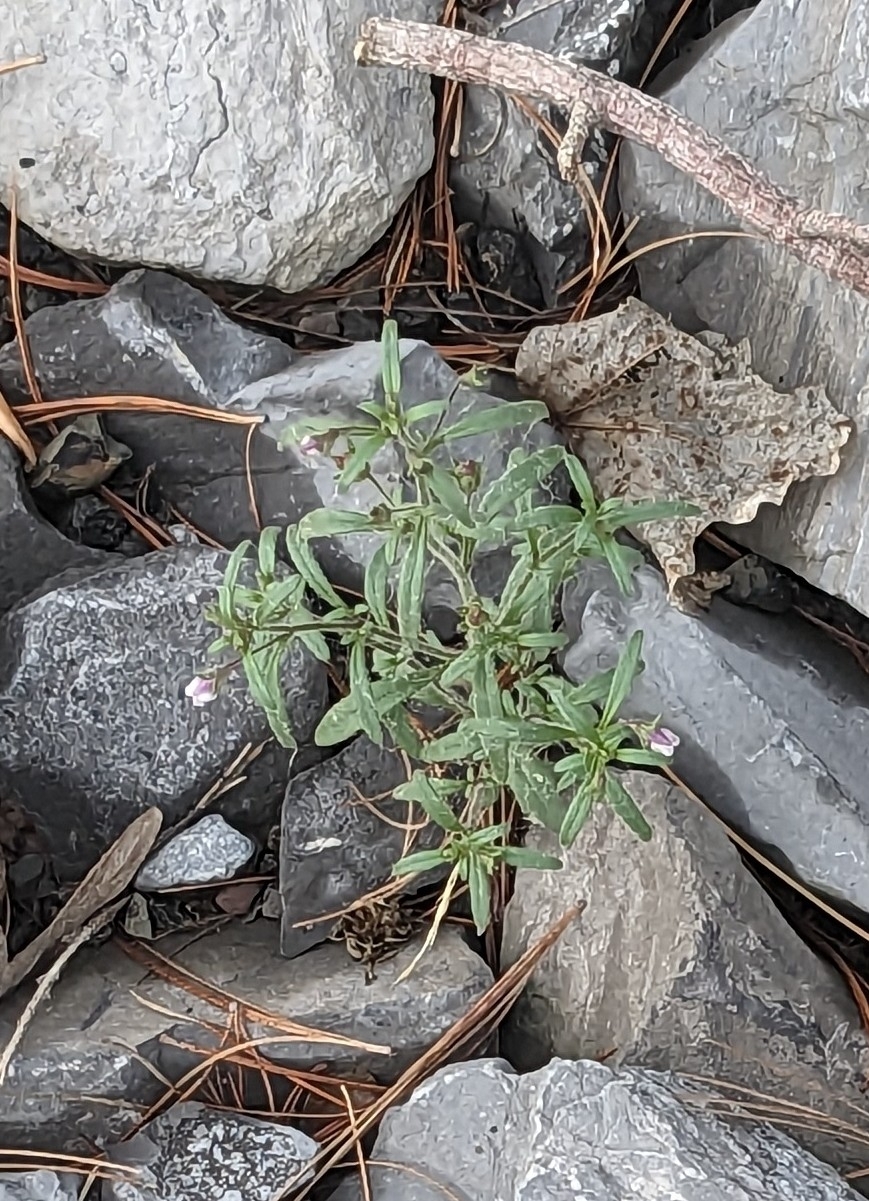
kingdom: Plantae
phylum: Tracheophyta
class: Magnoliopsida
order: Lamiales
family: Plantaginaceae
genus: Chaenorhinum
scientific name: Chaenorhinum minus
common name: Dwarf snapdragon
